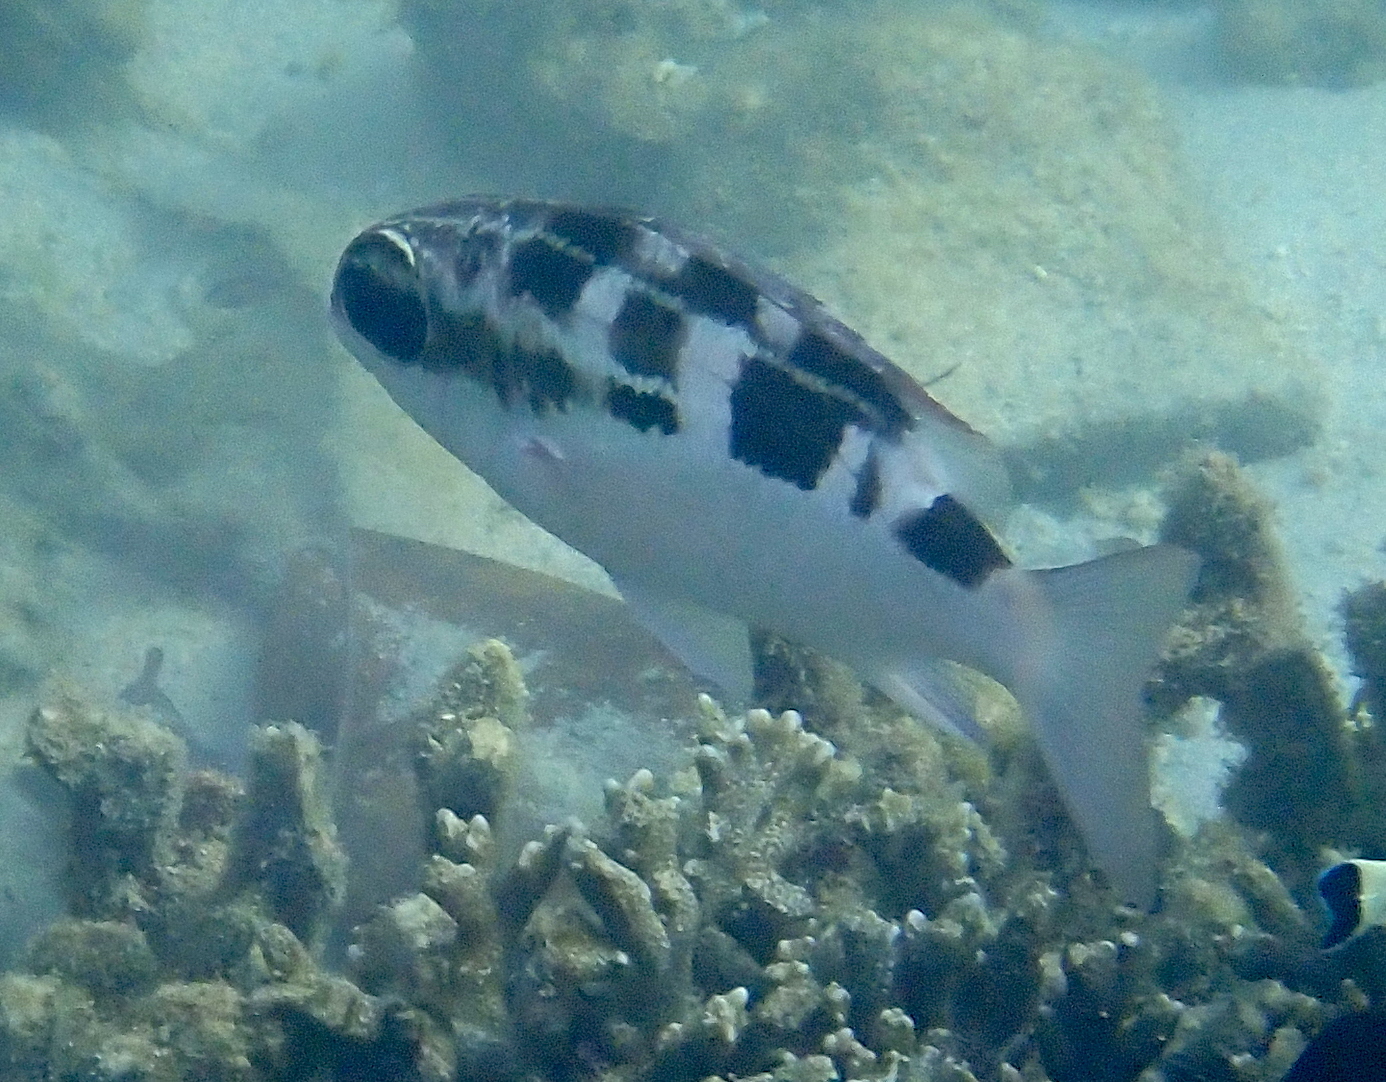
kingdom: Animalia
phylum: Chordata
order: Perciformes
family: Nemipteridae
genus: Scolopsis
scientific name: Scolopsis lineata
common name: Striped monocle bream
